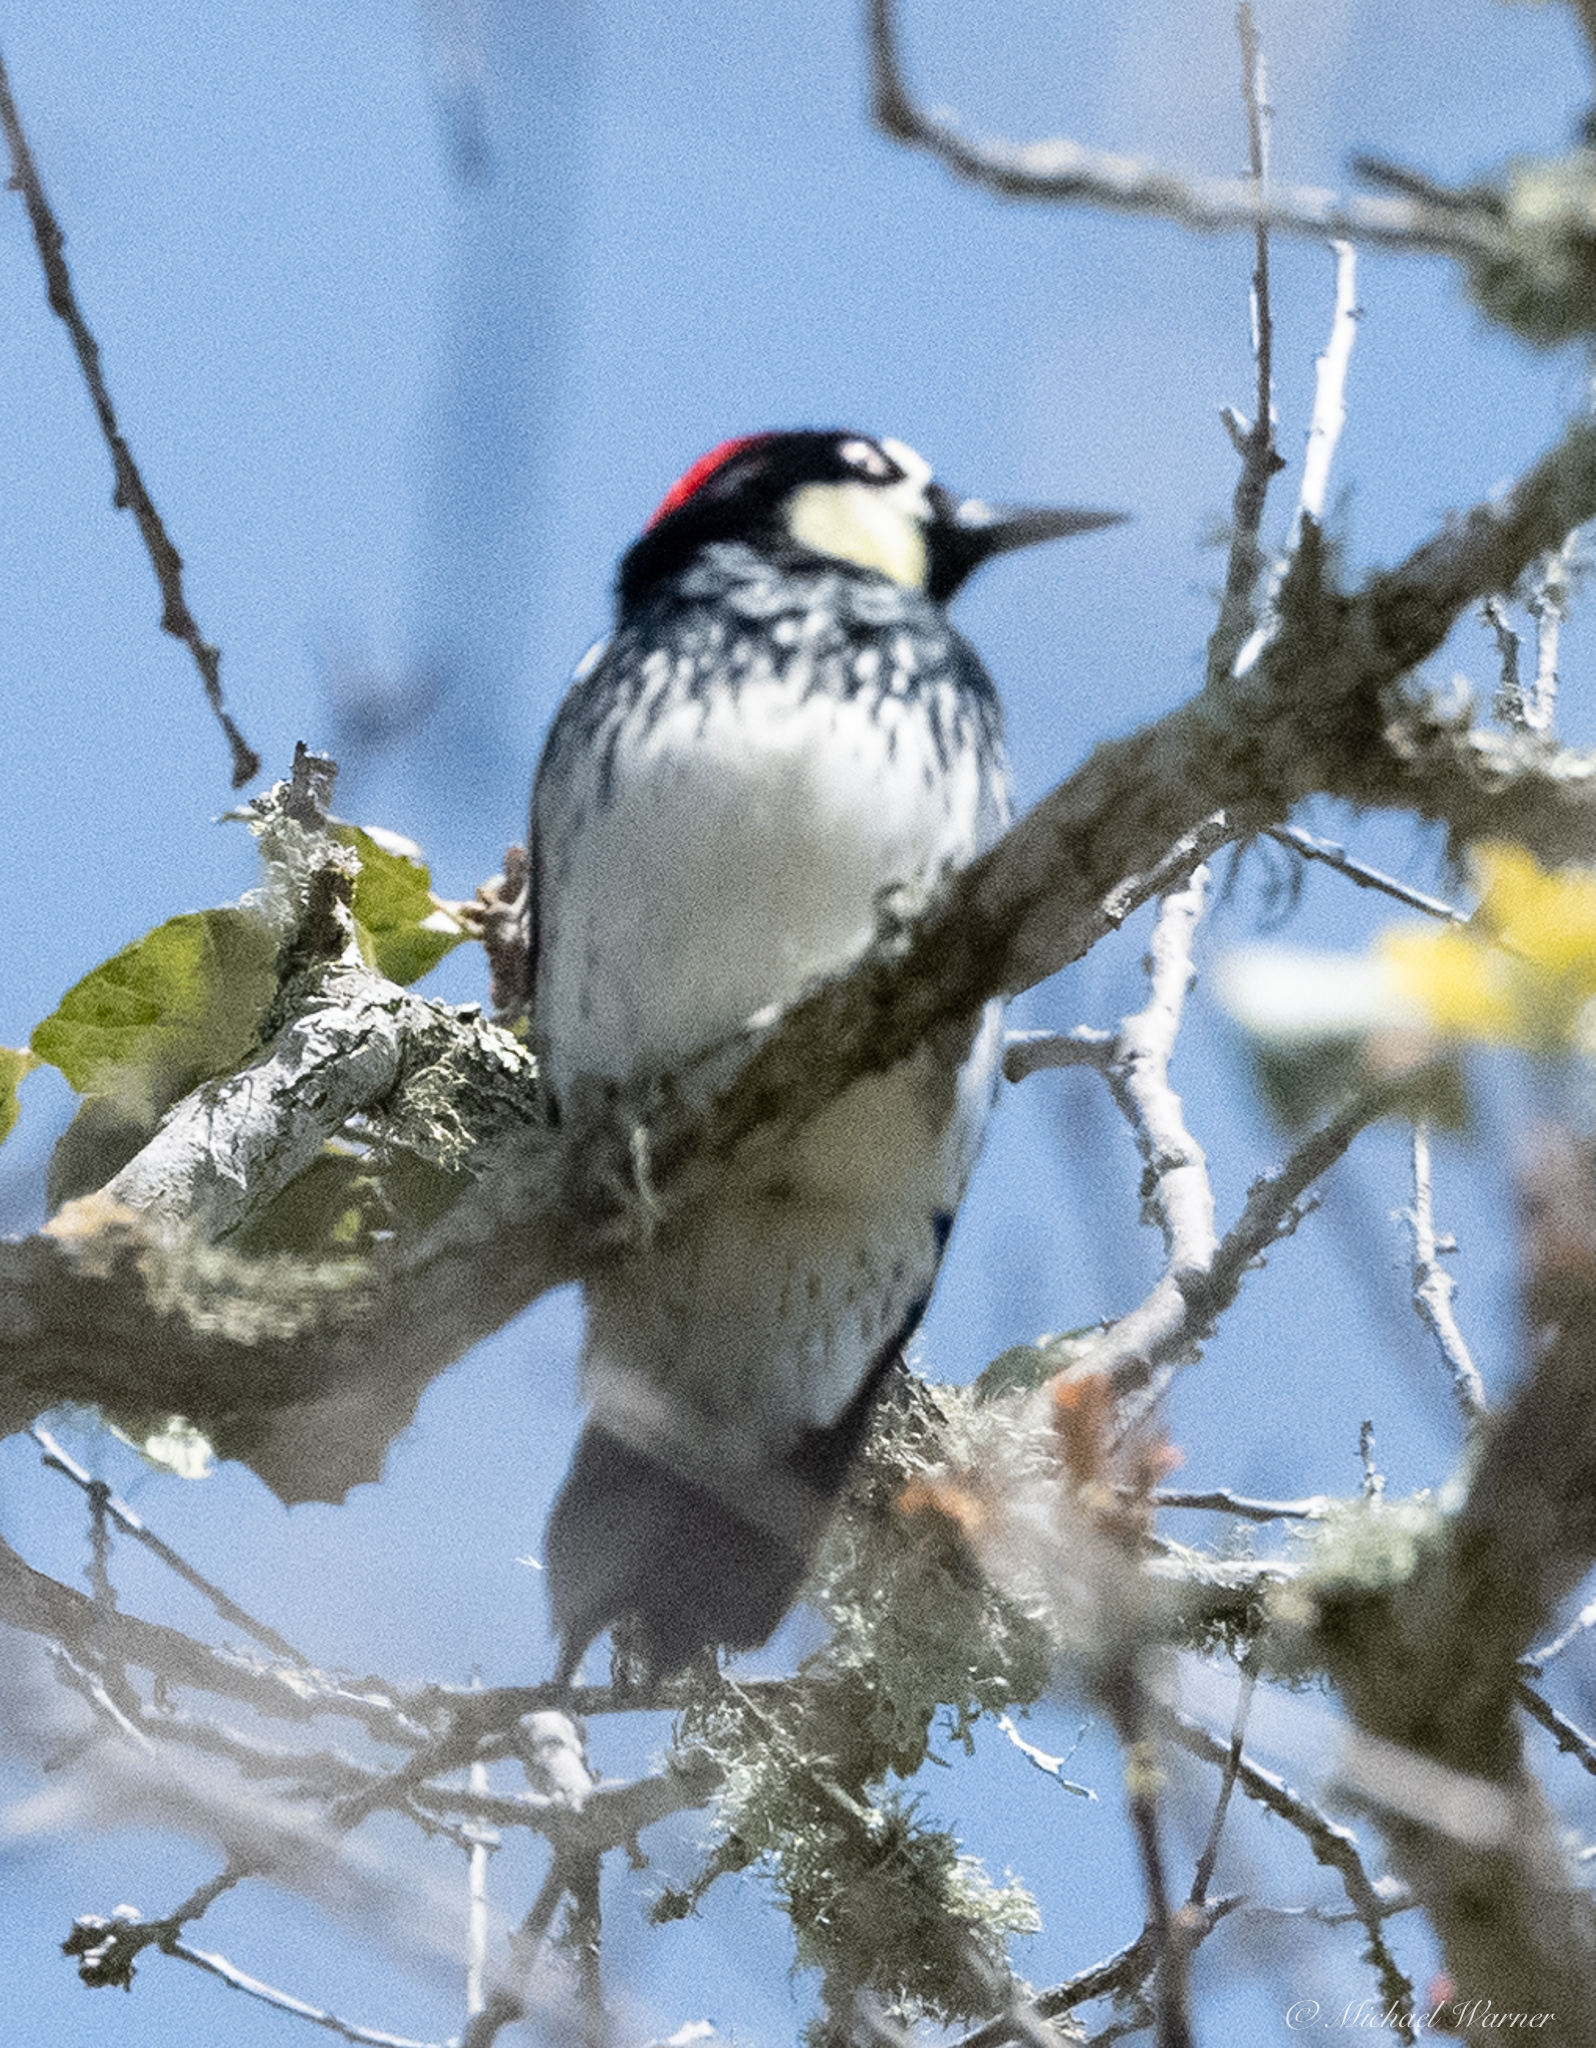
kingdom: Animalia
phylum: Chordata
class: Aves
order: Piciformes
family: Picidae
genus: Melanerpes
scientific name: Melanerpes formicivorus
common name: Acorn woodpecker
